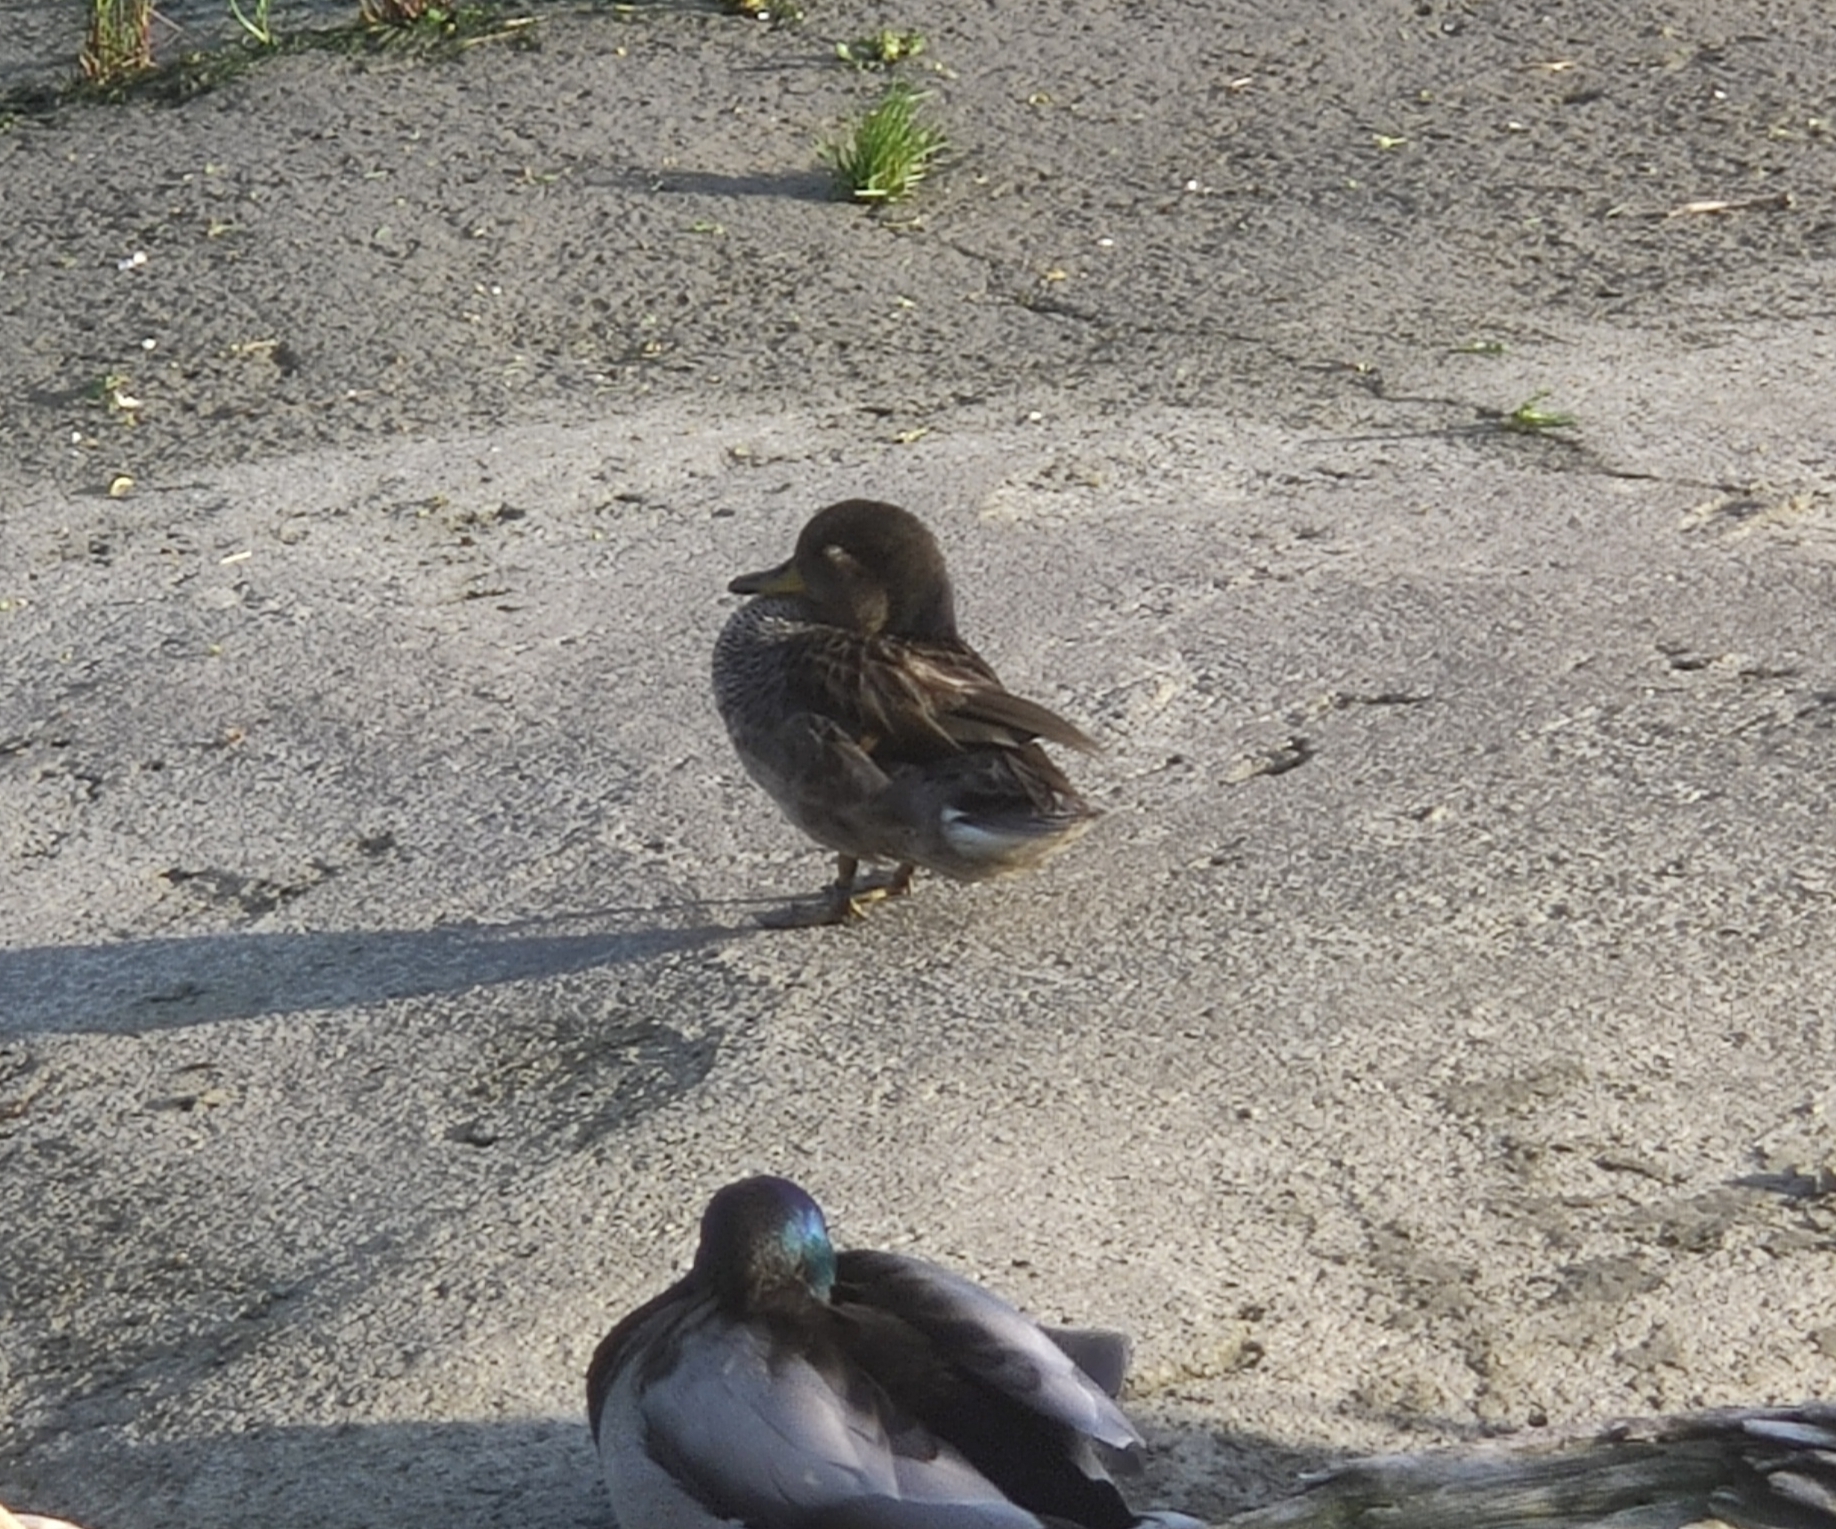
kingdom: Animalia
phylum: Chordata
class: Aves
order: Anseriformes
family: Anatidae
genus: Anas
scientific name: Anas platyrhynchos
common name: Mallard
